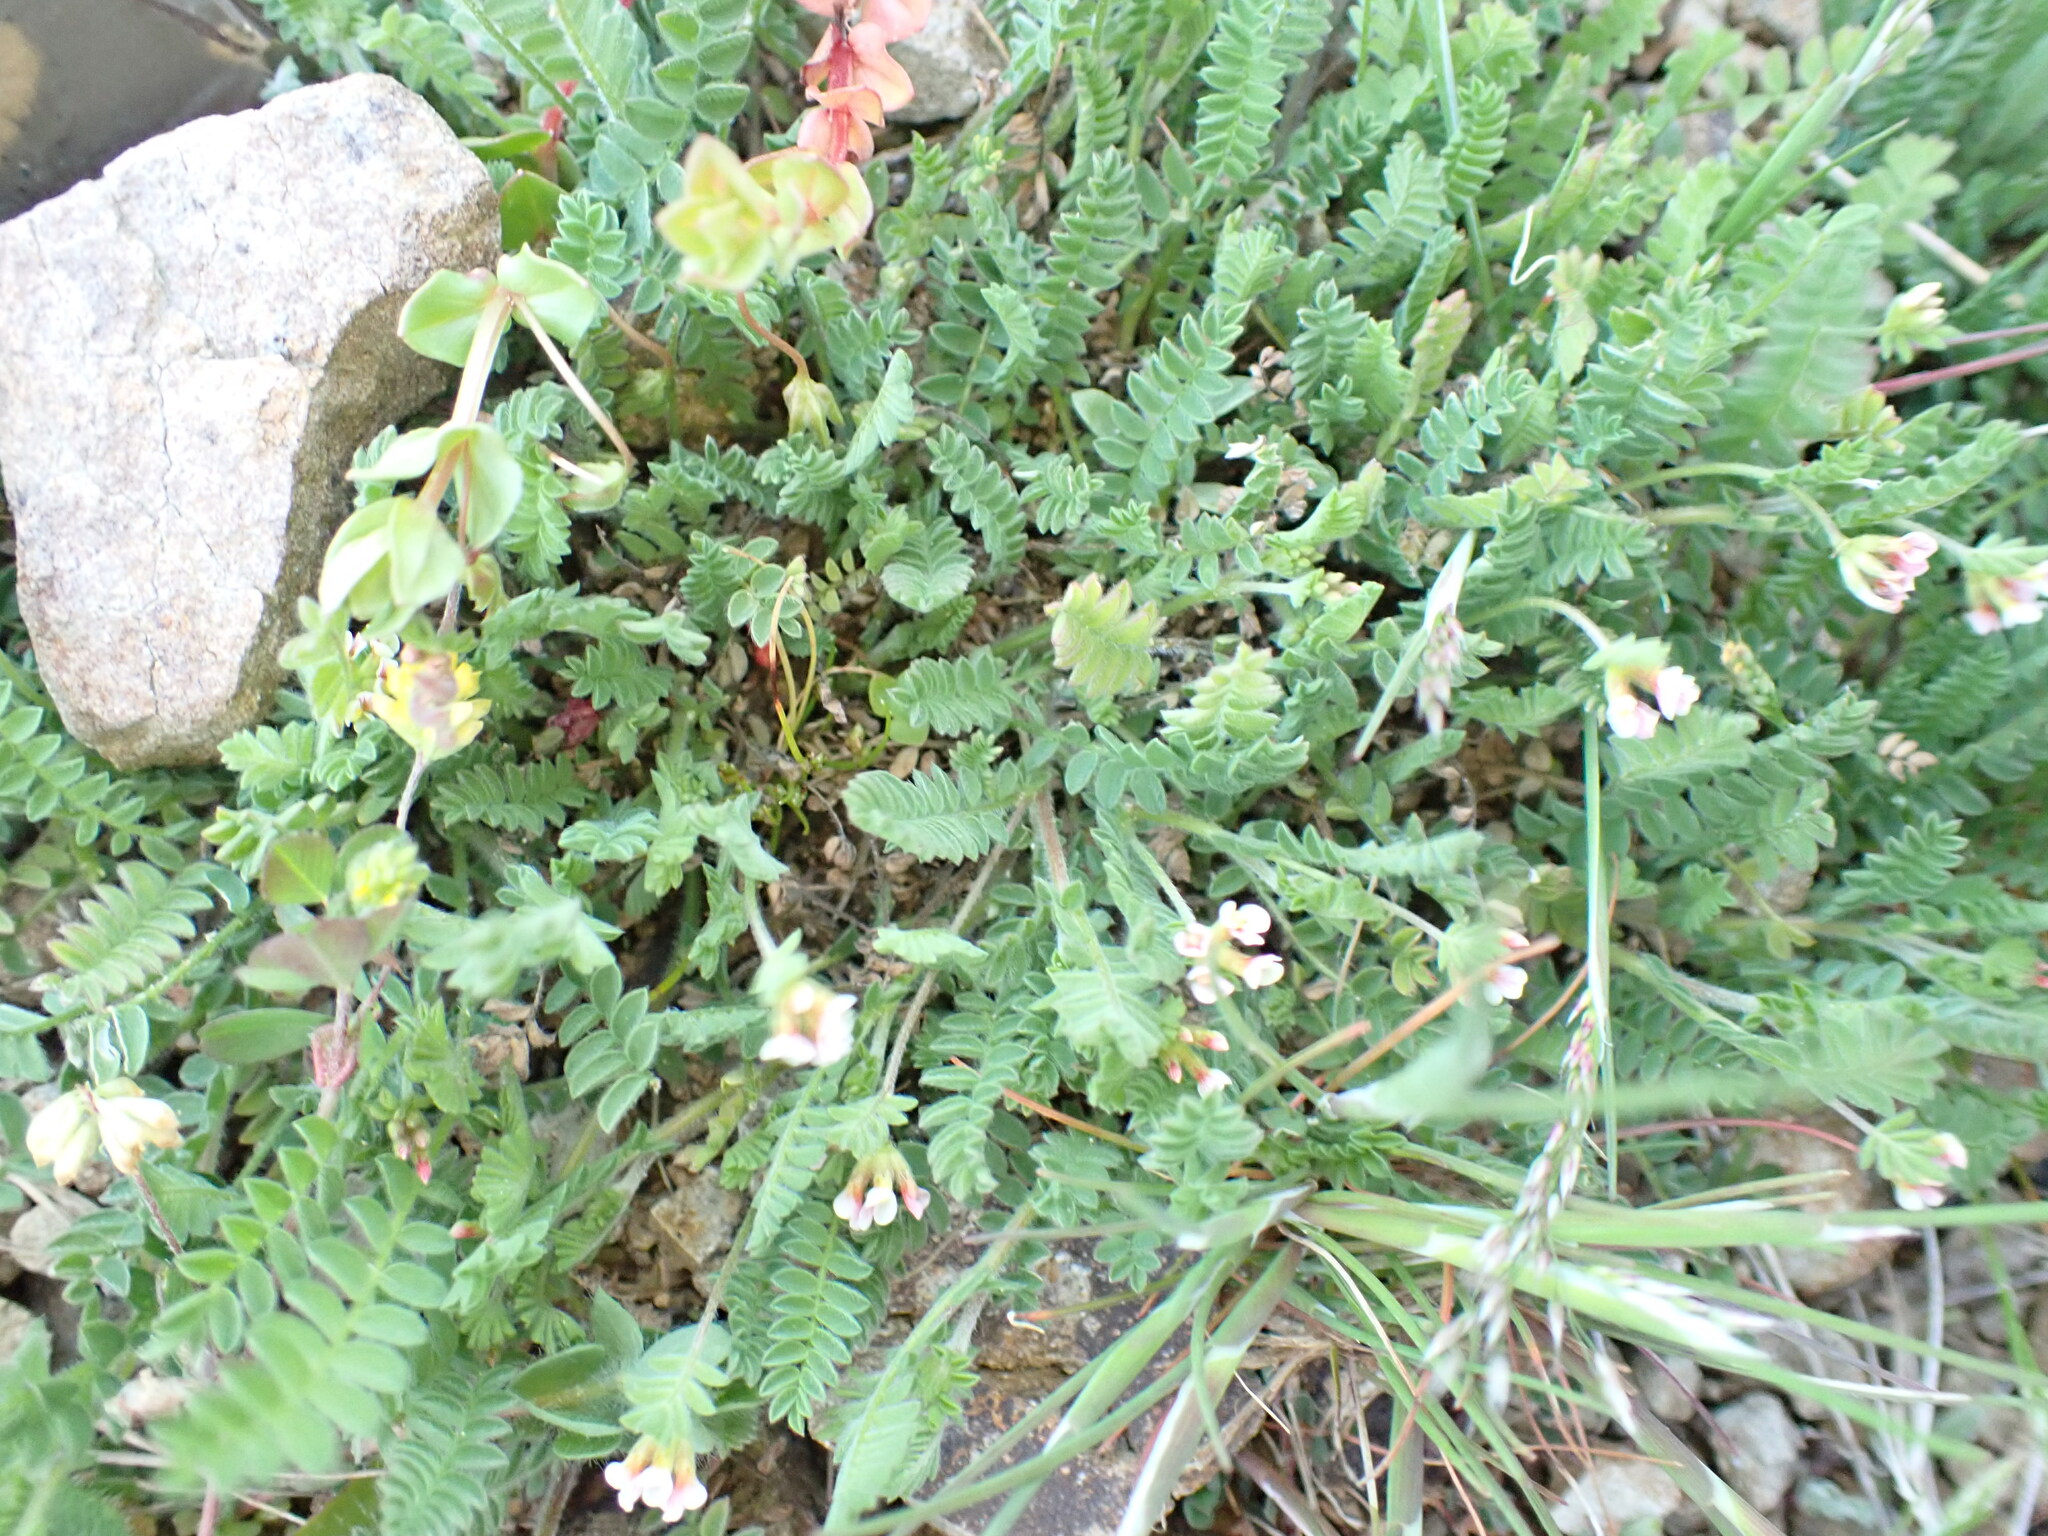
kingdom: Plantae
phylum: Tracheophyta
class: Magnoliopsida
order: Fabales
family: Fabaceae
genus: Ornithopus
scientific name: Ornithopus perpusillus
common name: Bird's-foot
